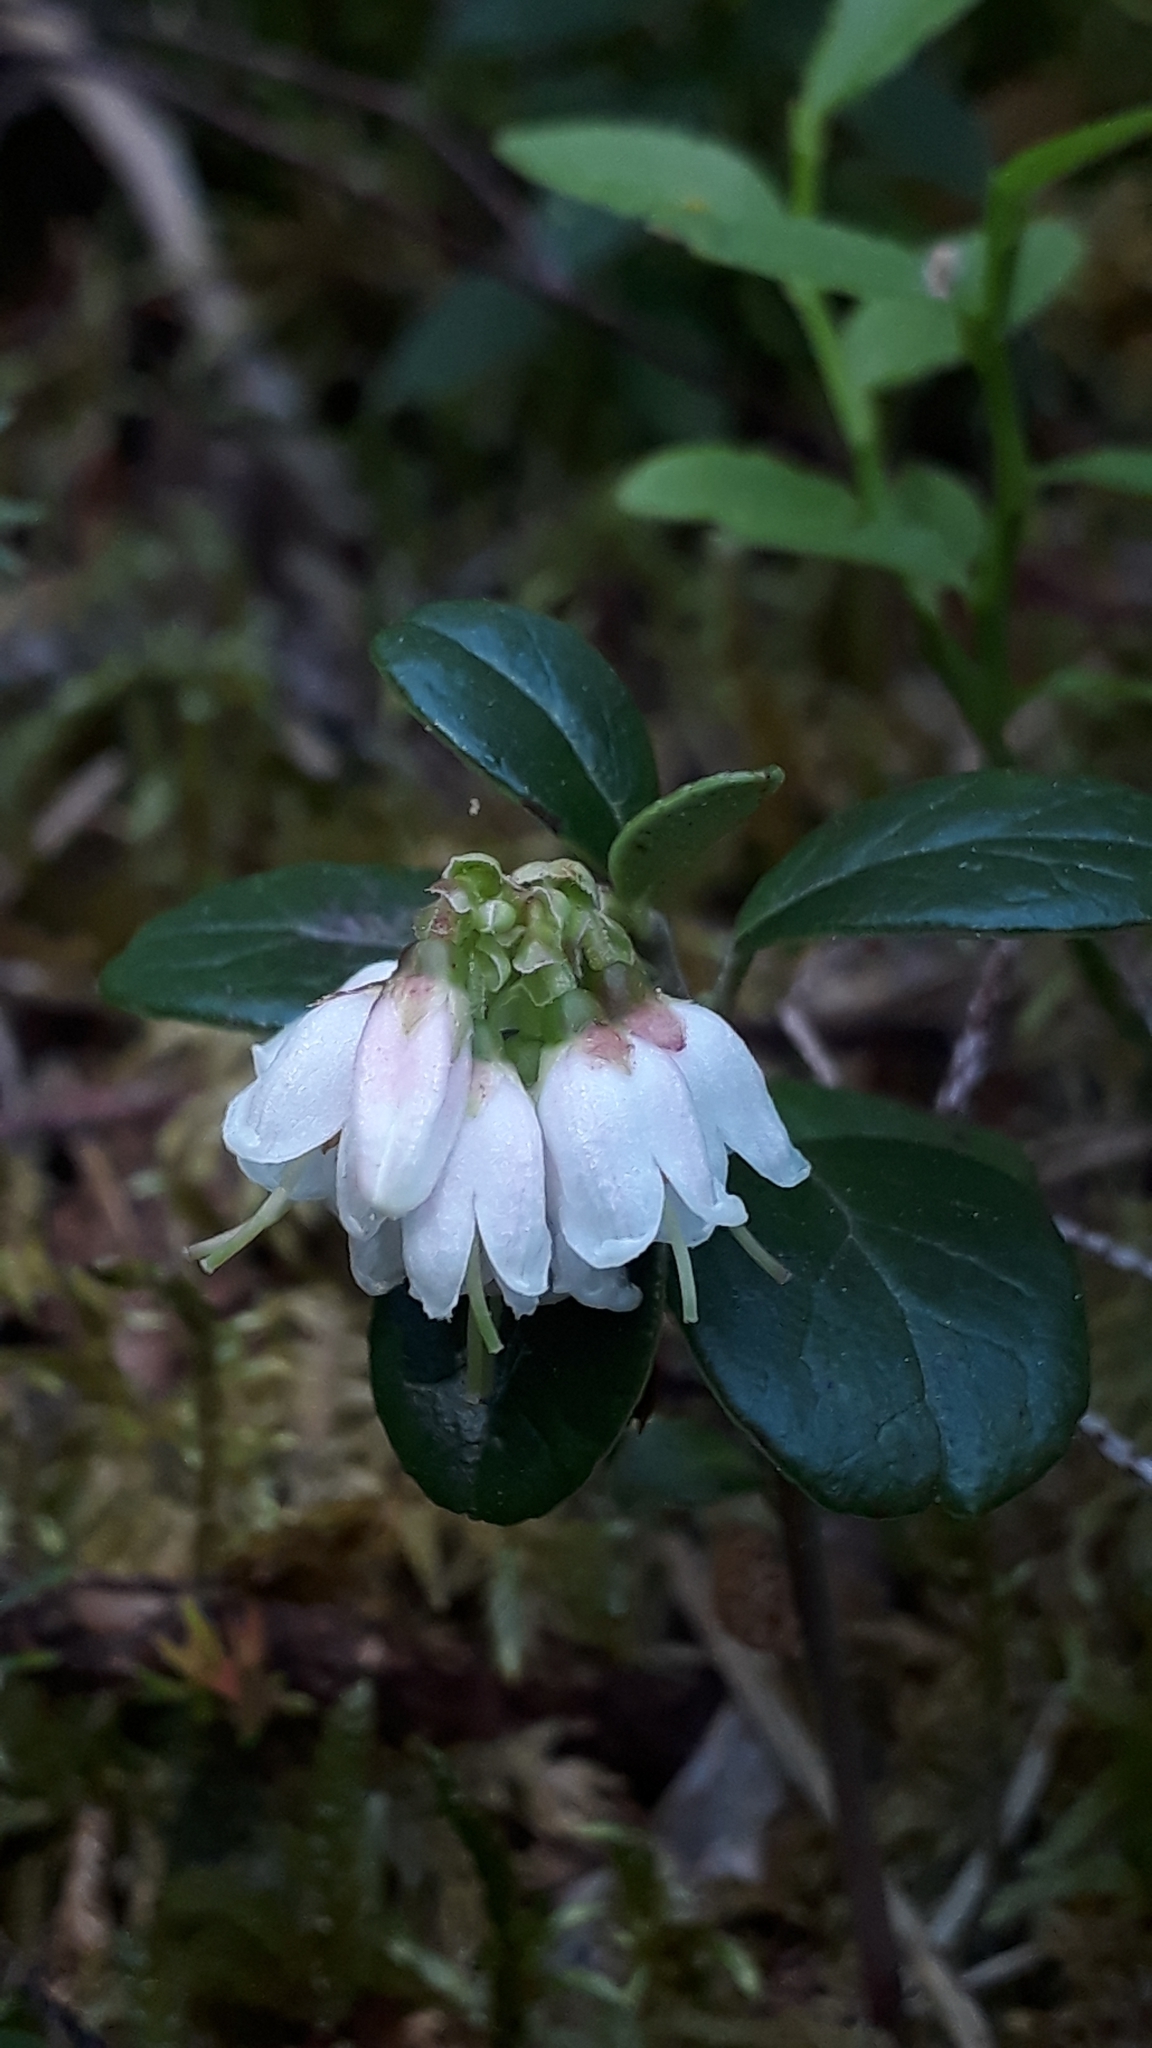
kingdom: Plantae
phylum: Tracheophyta
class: Magnoliopsida
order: Ericales
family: Ericaceae
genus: Vaccinium
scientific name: Vaccinium vitis-idaea
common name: Cowberry
